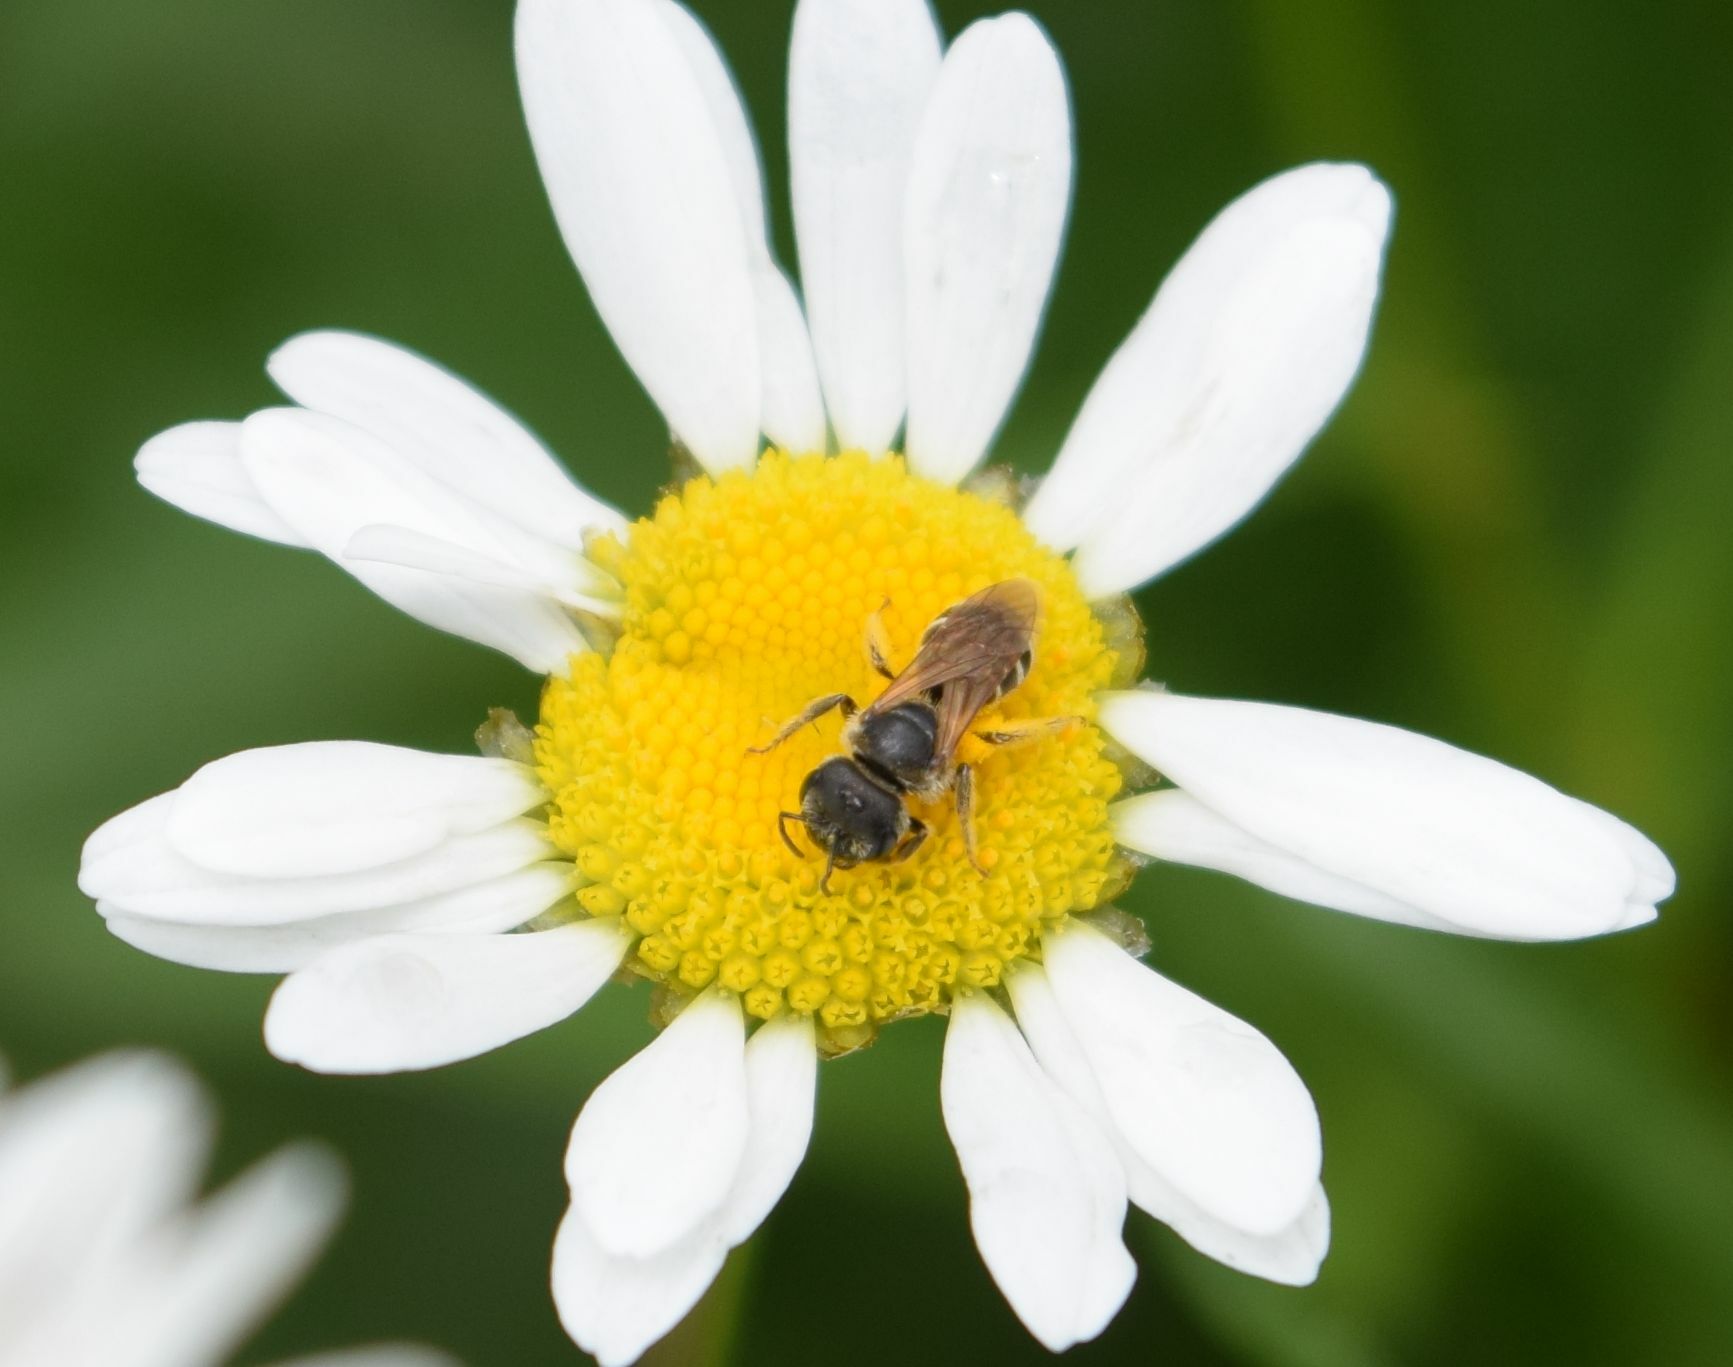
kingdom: Animalia
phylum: Arthropoda
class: Insecta
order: Hymenoptera
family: Halictidae
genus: Halictus
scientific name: Halictus ligatus
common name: Ligated furrow bee
